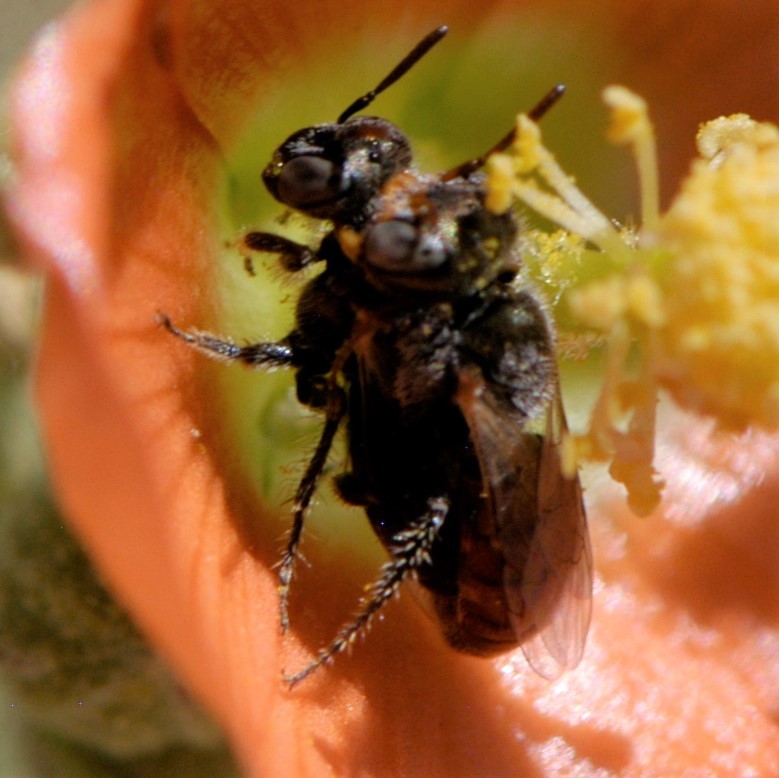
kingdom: Animalia
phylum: Arthropoda
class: Insecta
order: Hymenoptera
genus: Macroteropsis
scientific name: Macroteropsis
